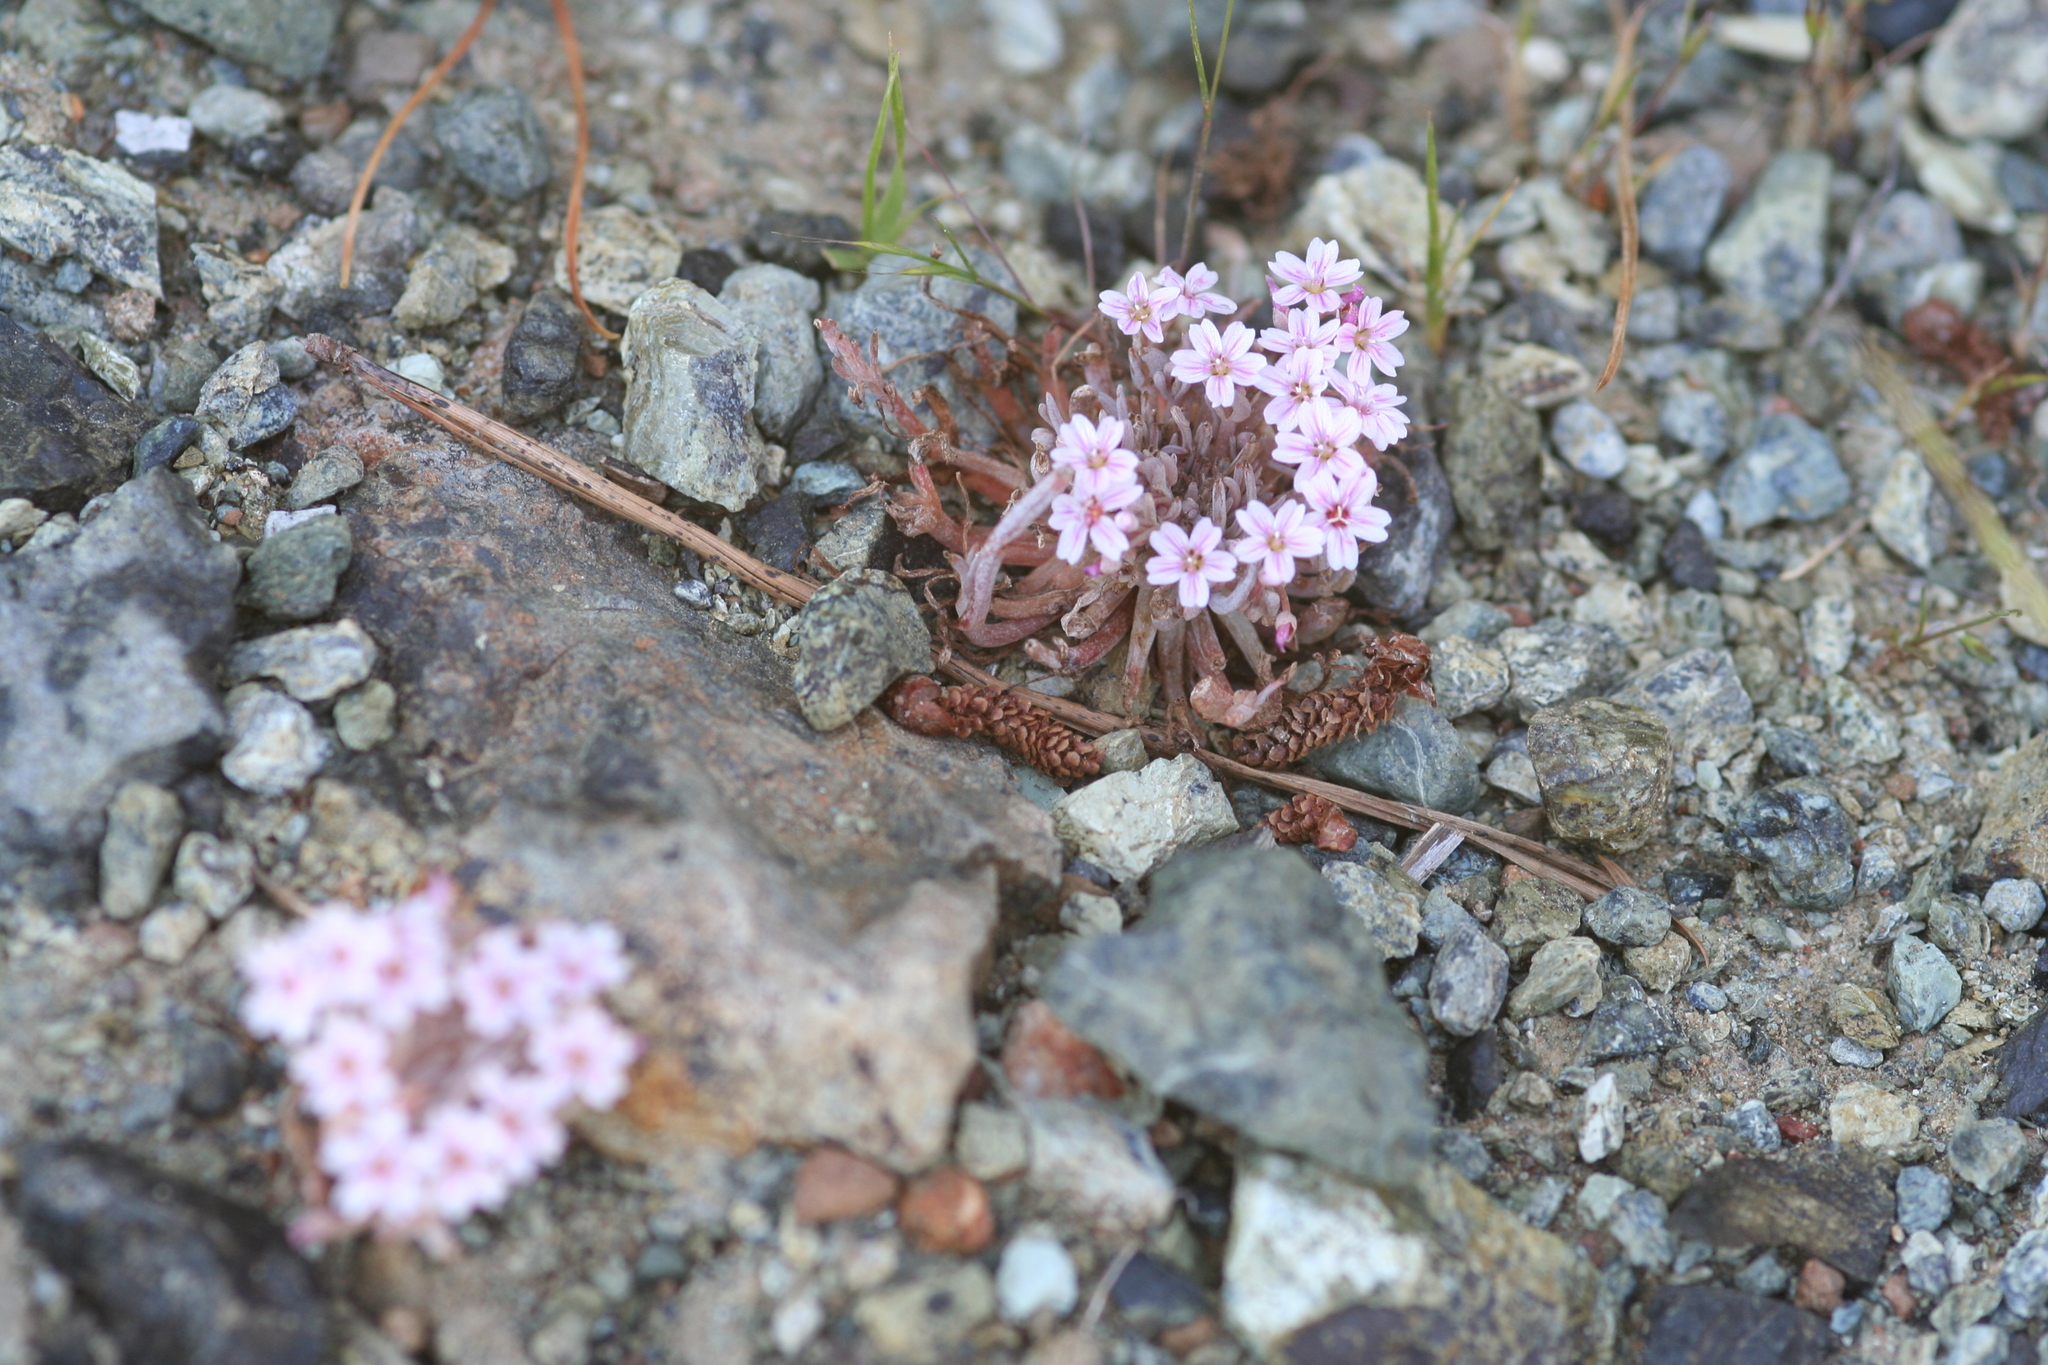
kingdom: Plantae
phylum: Tracheophyta
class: Magnoliopsida
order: Caryophyllales
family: Montiaceae
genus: Claytonia
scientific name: Claytonia gypsophiloides
